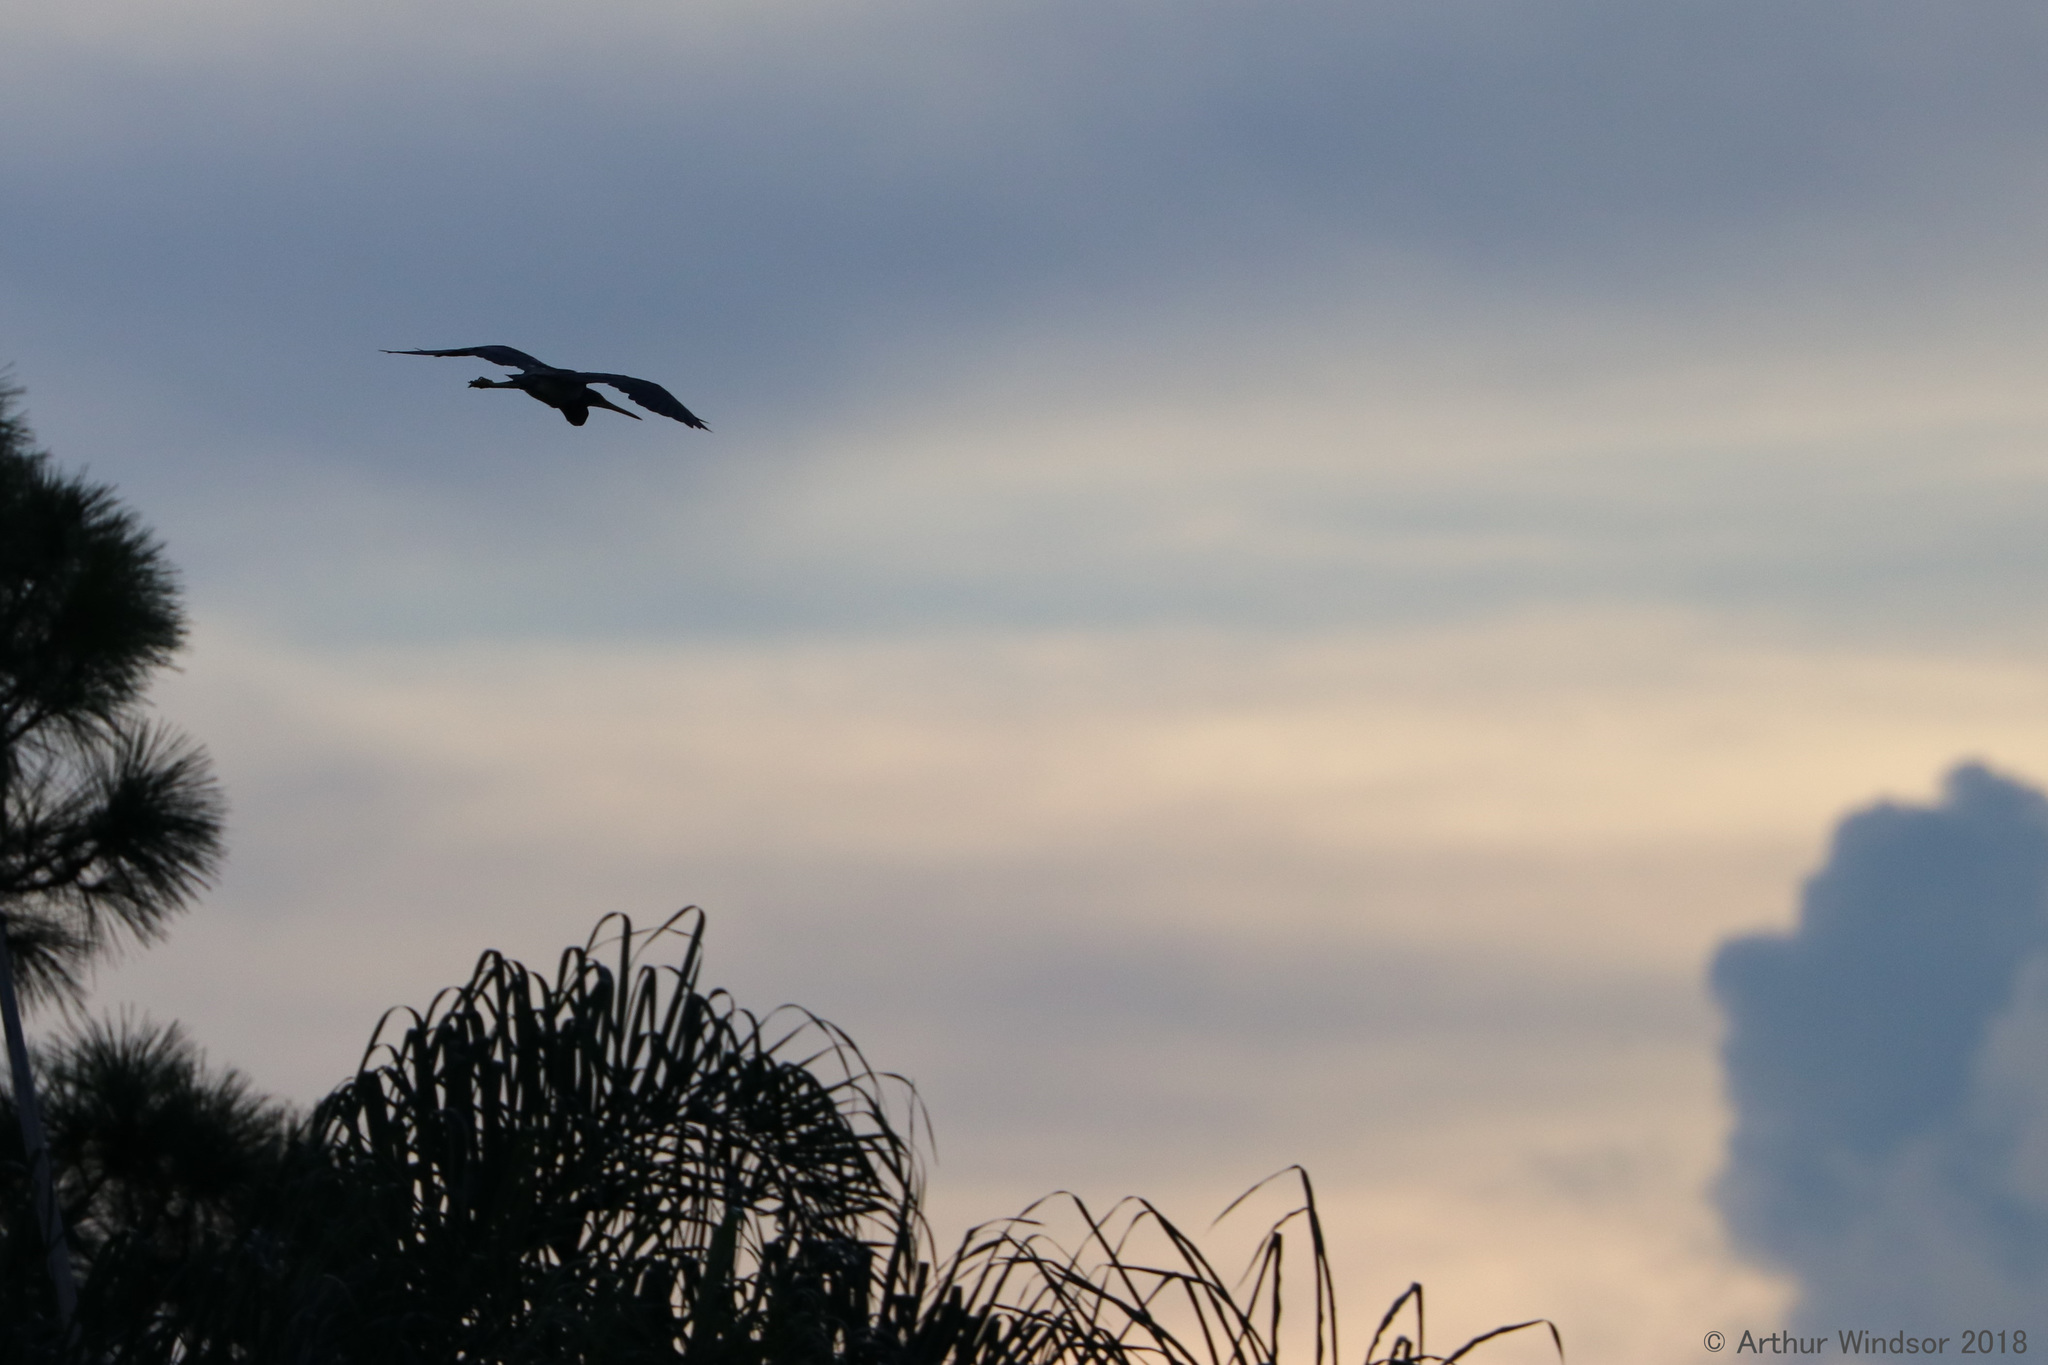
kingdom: Animalia
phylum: Chordata
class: Aves
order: Pelecaniformes
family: Ardeidae
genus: Egretta
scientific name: Egretta tricolor
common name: Tricolored heron
